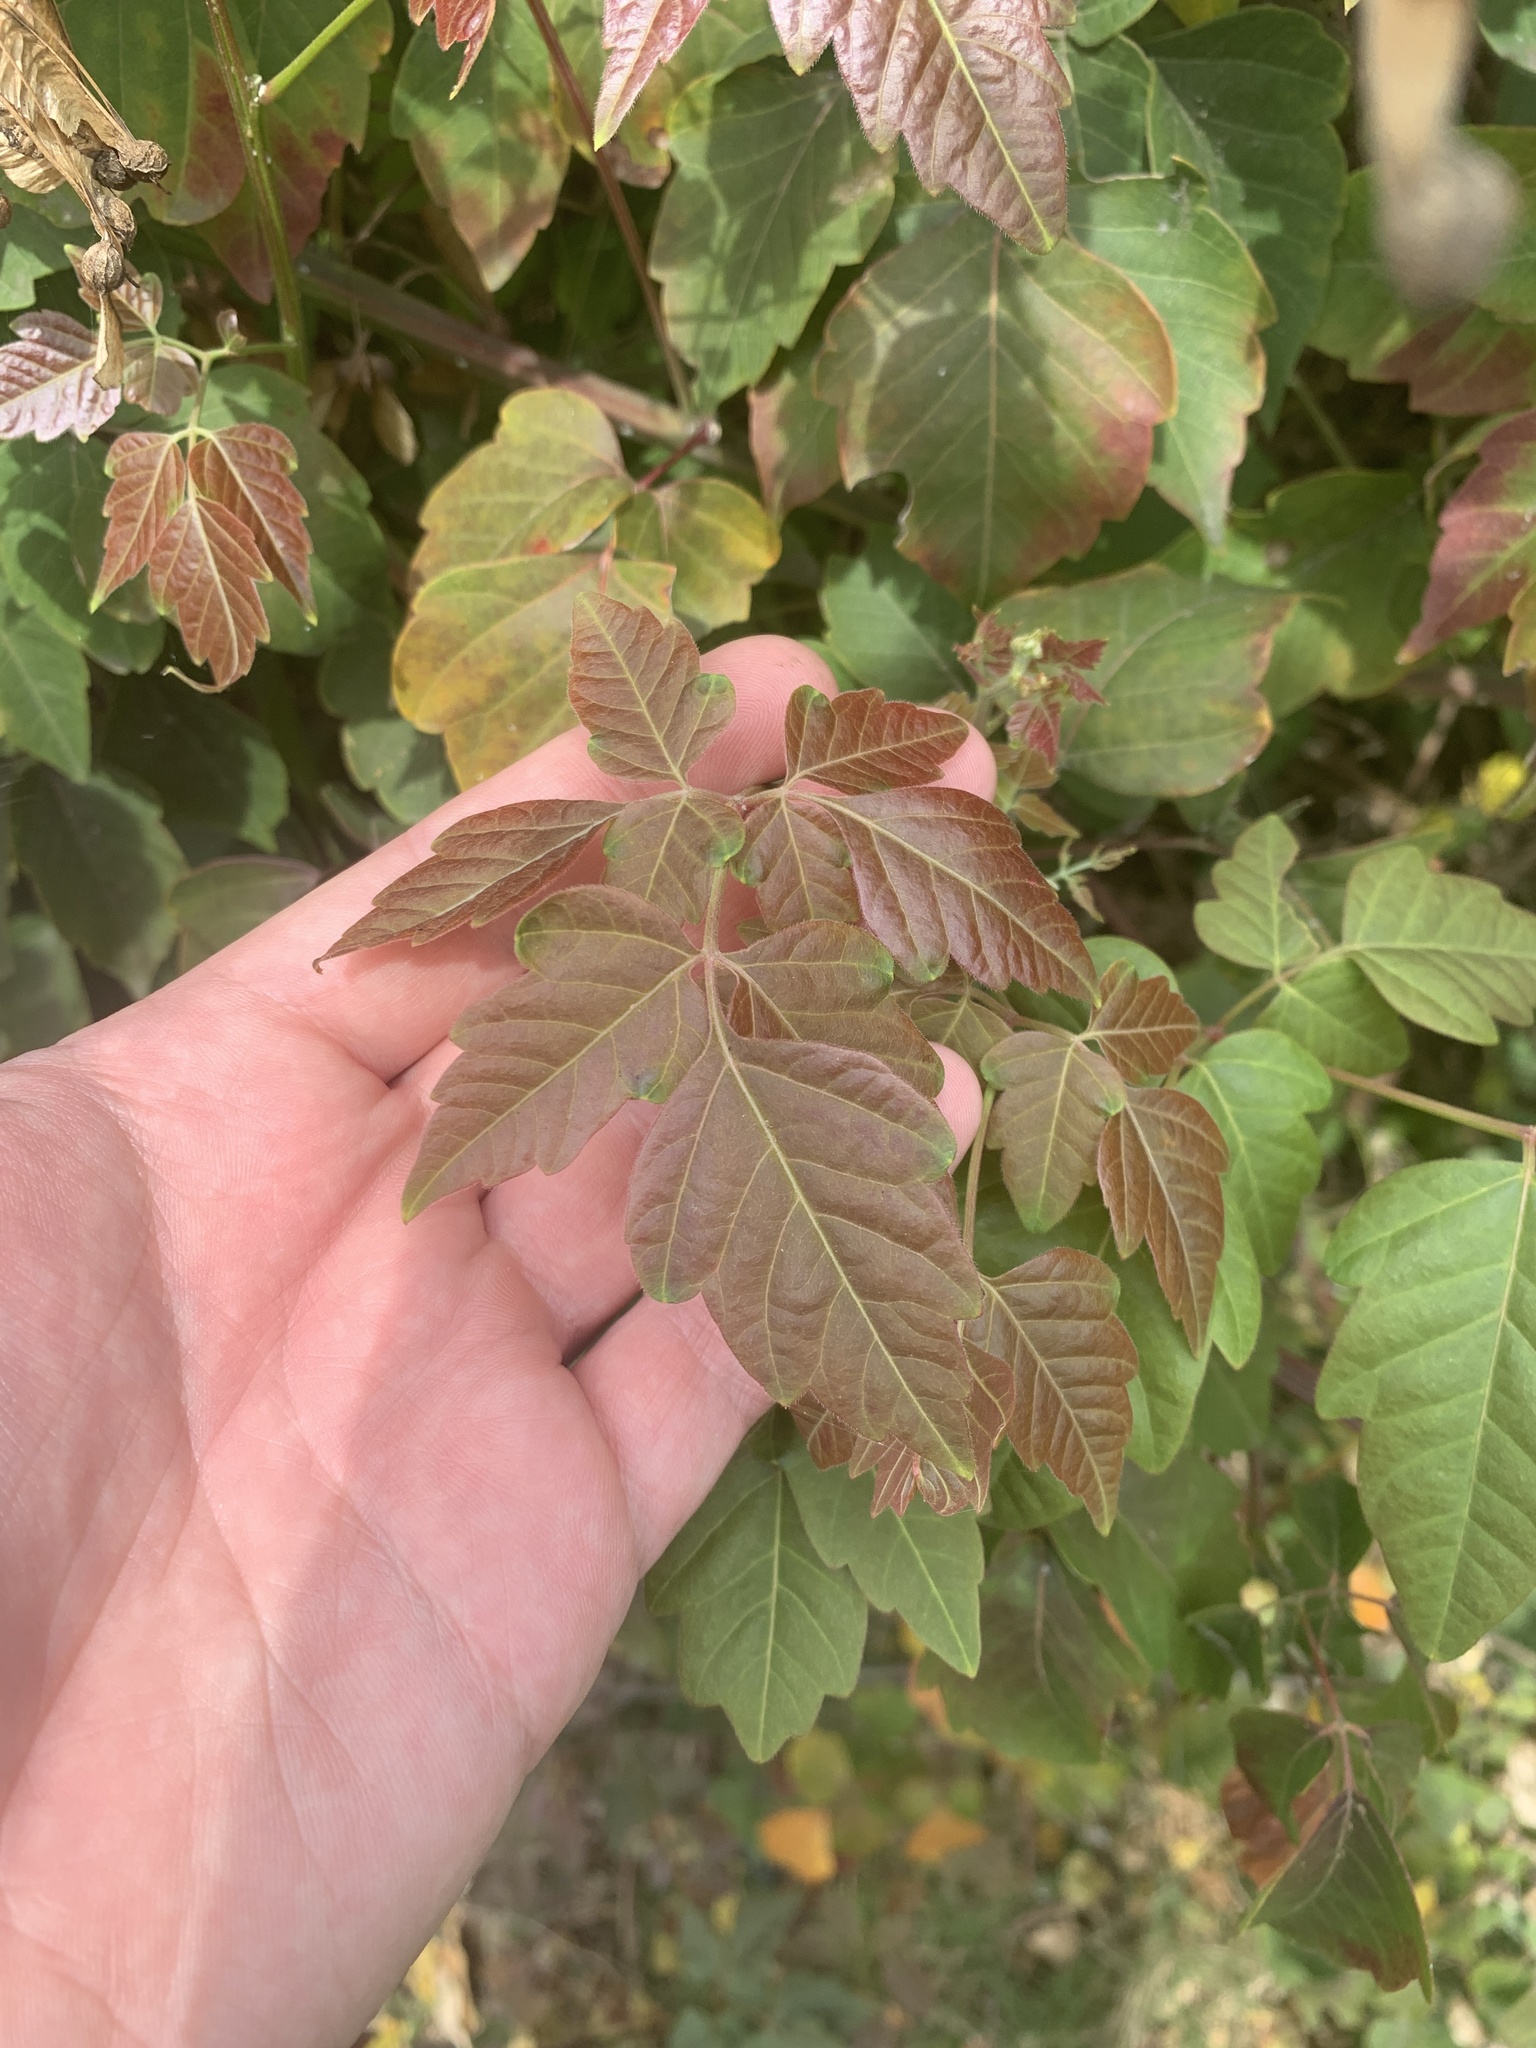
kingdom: Plantae
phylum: Tracheophyta
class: Magnoliopsida
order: Sapindales
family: Sapindaceae
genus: Serjania
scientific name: Serjania meridionalis
